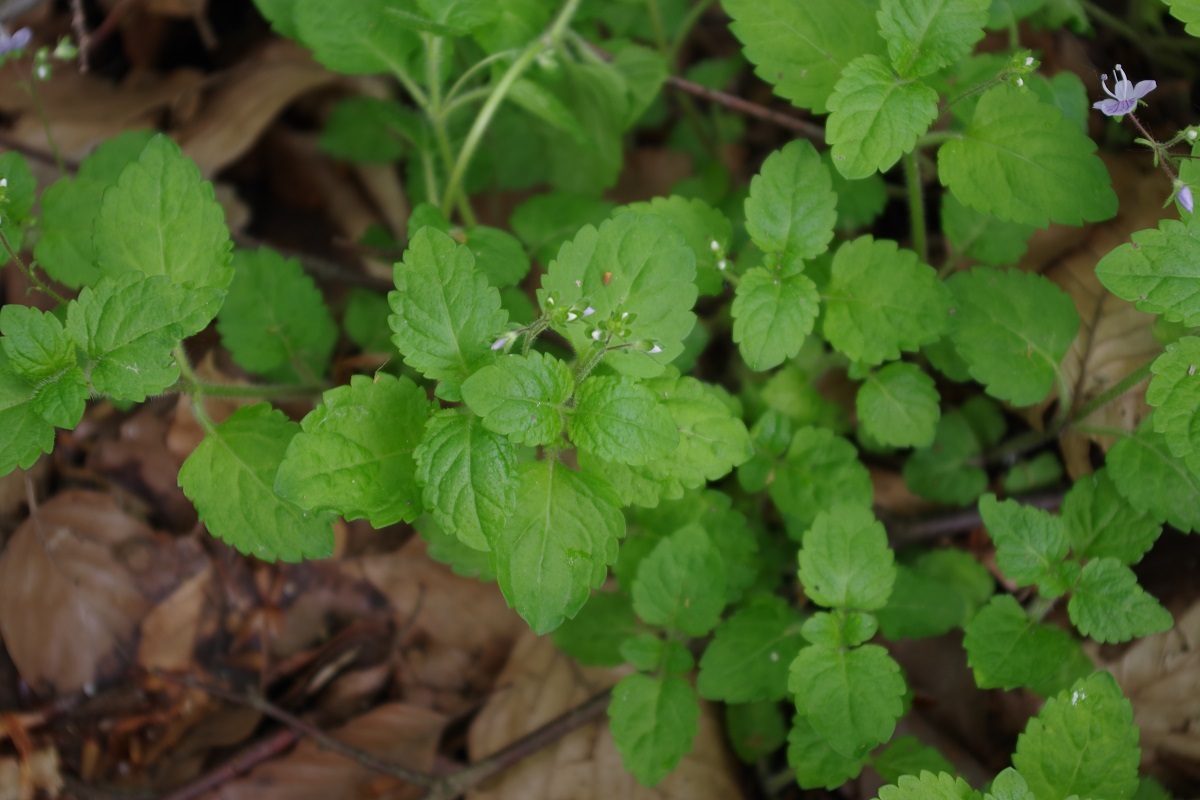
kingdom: Plantae
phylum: Tracheophyta
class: Magnoliopsida
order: Lamiales
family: Plantaginaceae
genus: Veronica
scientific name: Veronica montana
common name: Wood speedwell
